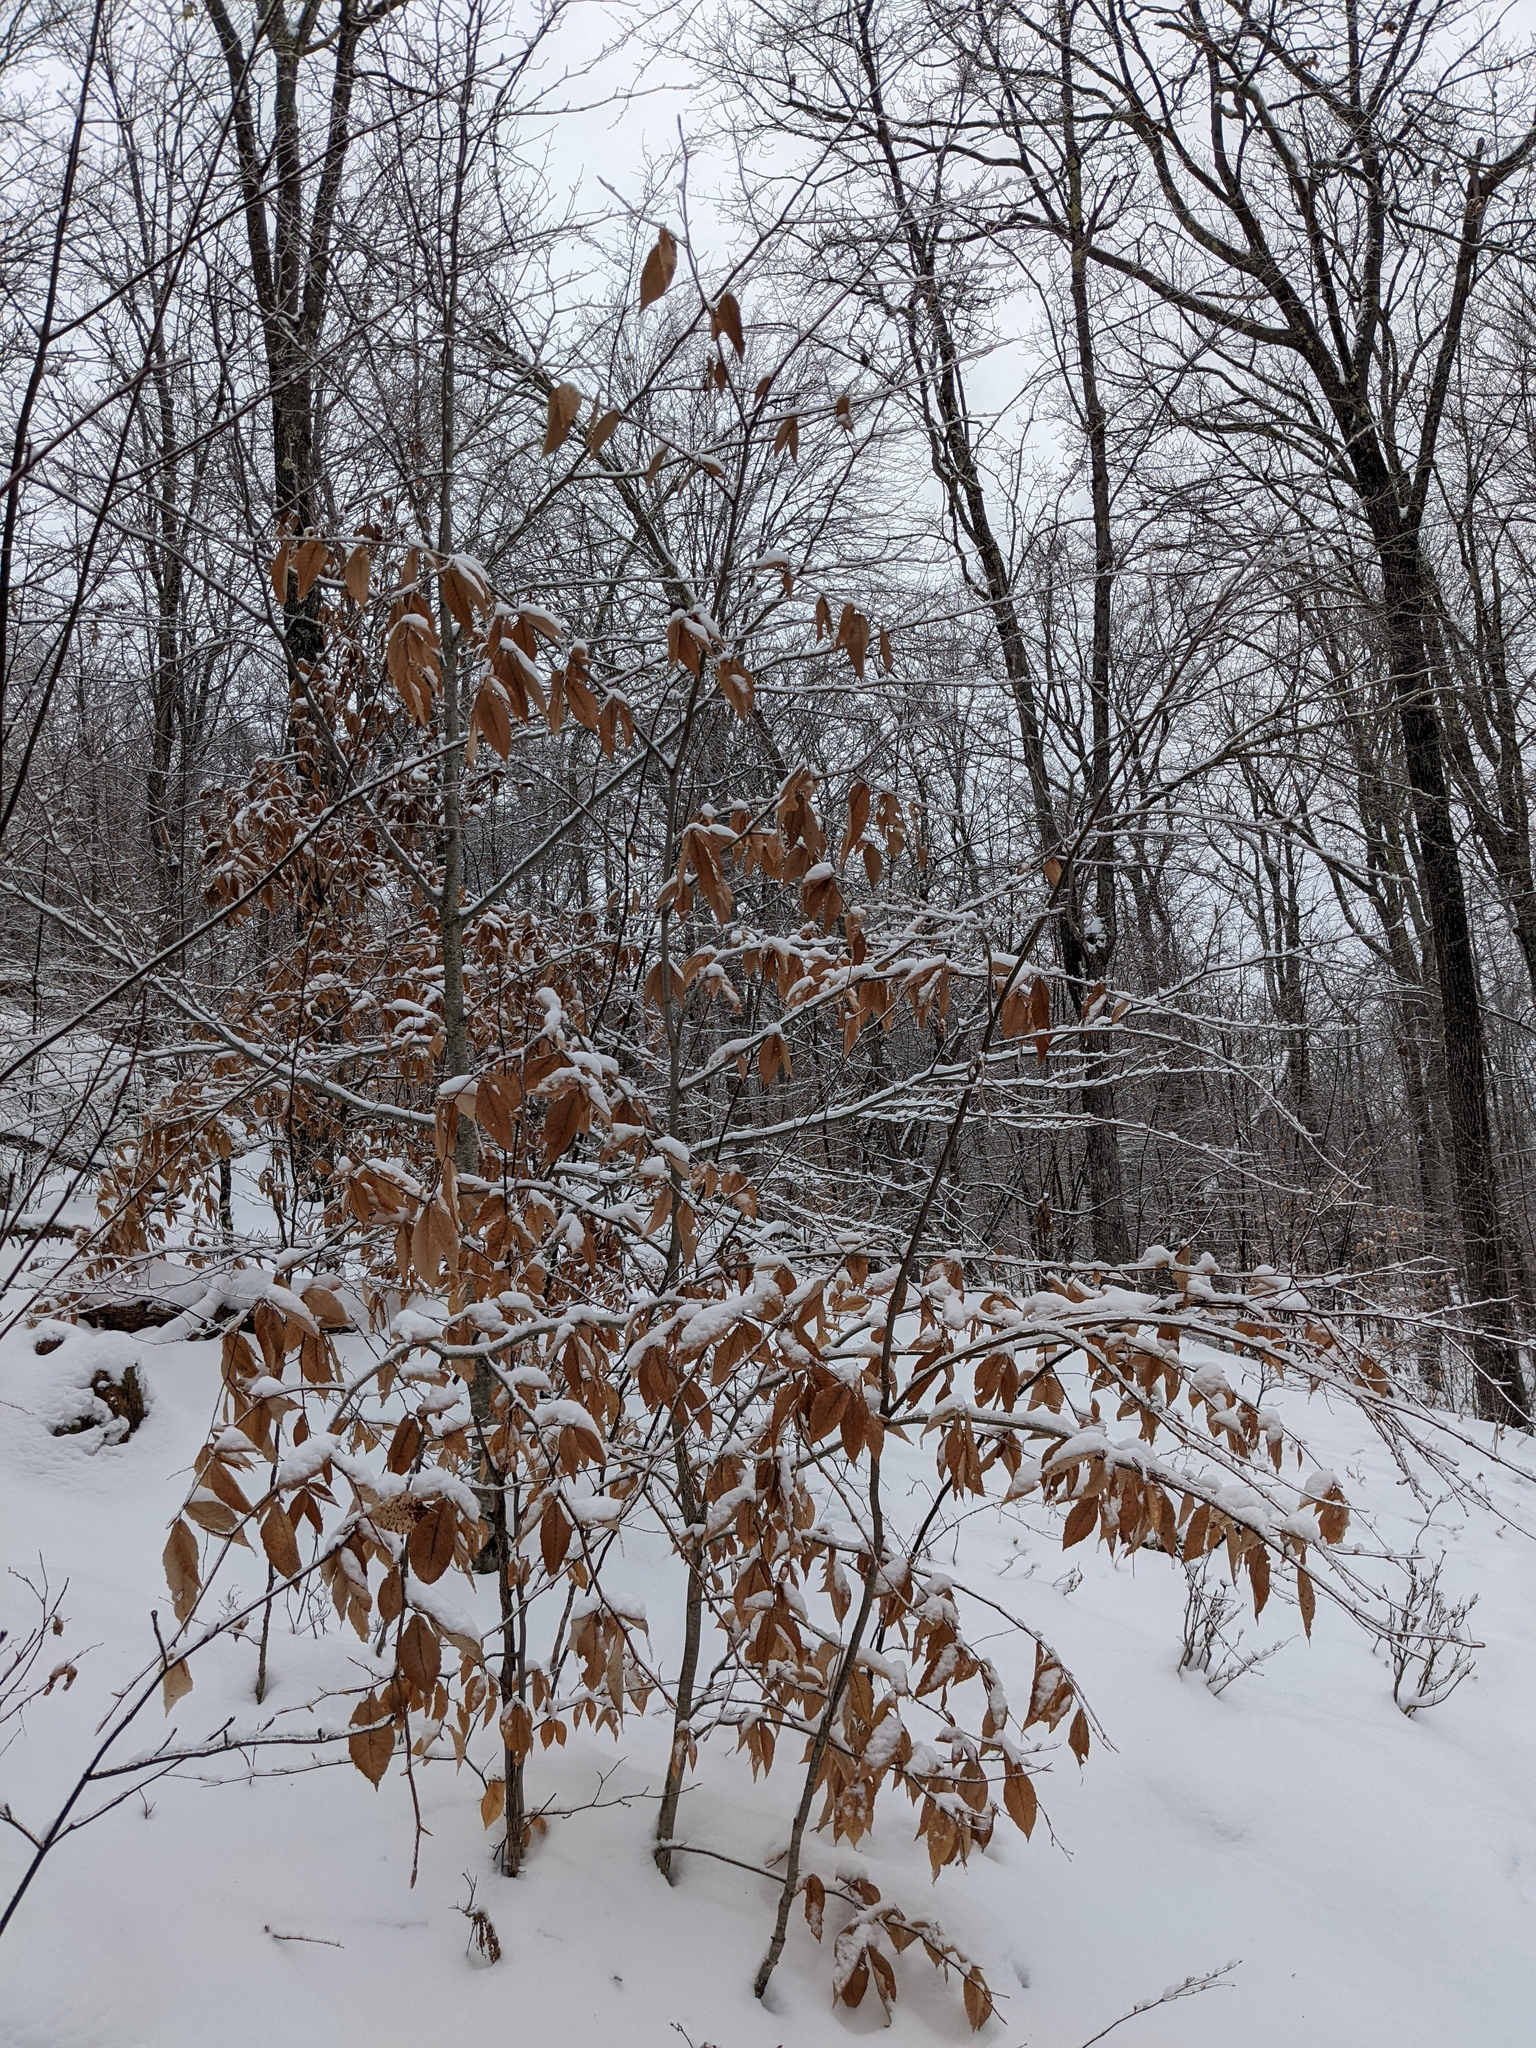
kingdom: Plantae
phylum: Tracheophyta
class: Magnoliopsida
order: Fagales
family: Fagaceae
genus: Fagus
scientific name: Fagus grandifolia
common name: American beech
